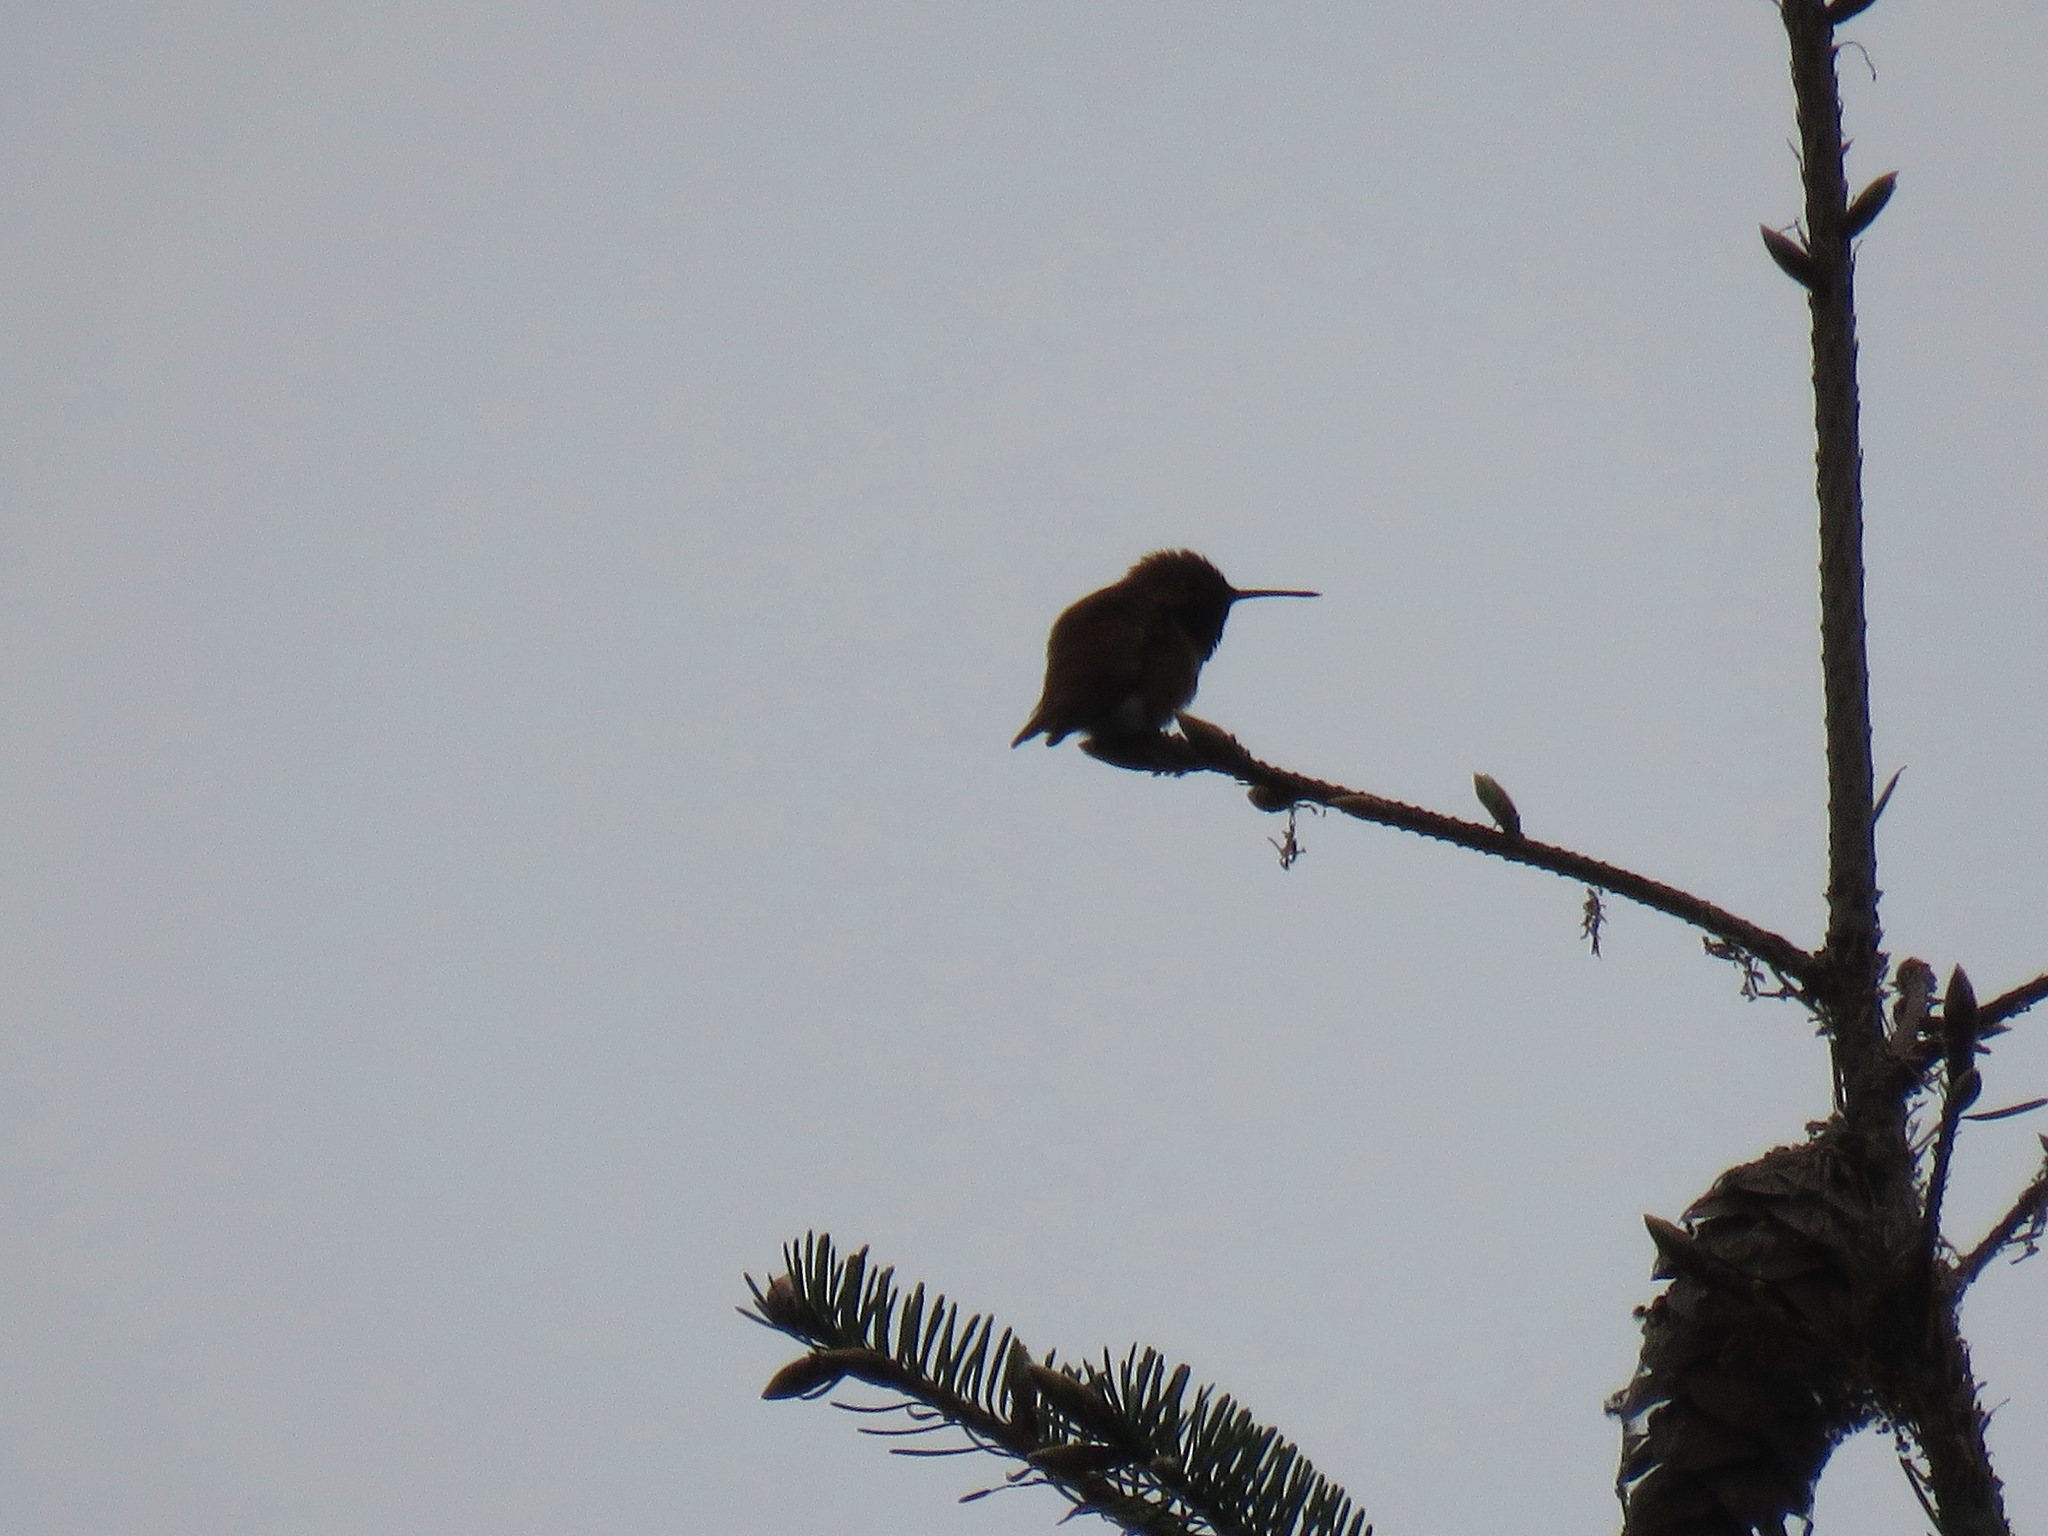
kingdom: Animalia
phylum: Chordata
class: Aves
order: Apodiformes
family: Trochilidae
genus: Selasphorus
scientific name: Selasphorus rufus
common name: Rufous hummingbird
